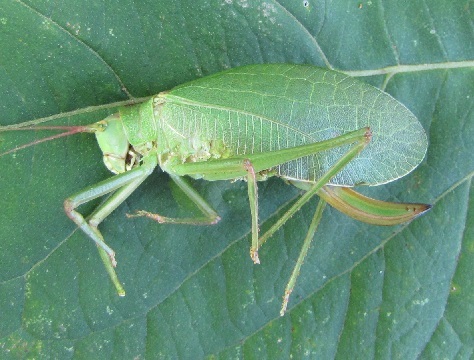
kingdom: Animalia
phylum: Arthropoda
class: Insecta
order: Orthoptera
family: Tettigoniidae
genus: Pterophylla
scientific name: Pterophylla camellifolia
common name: Common true katydid
